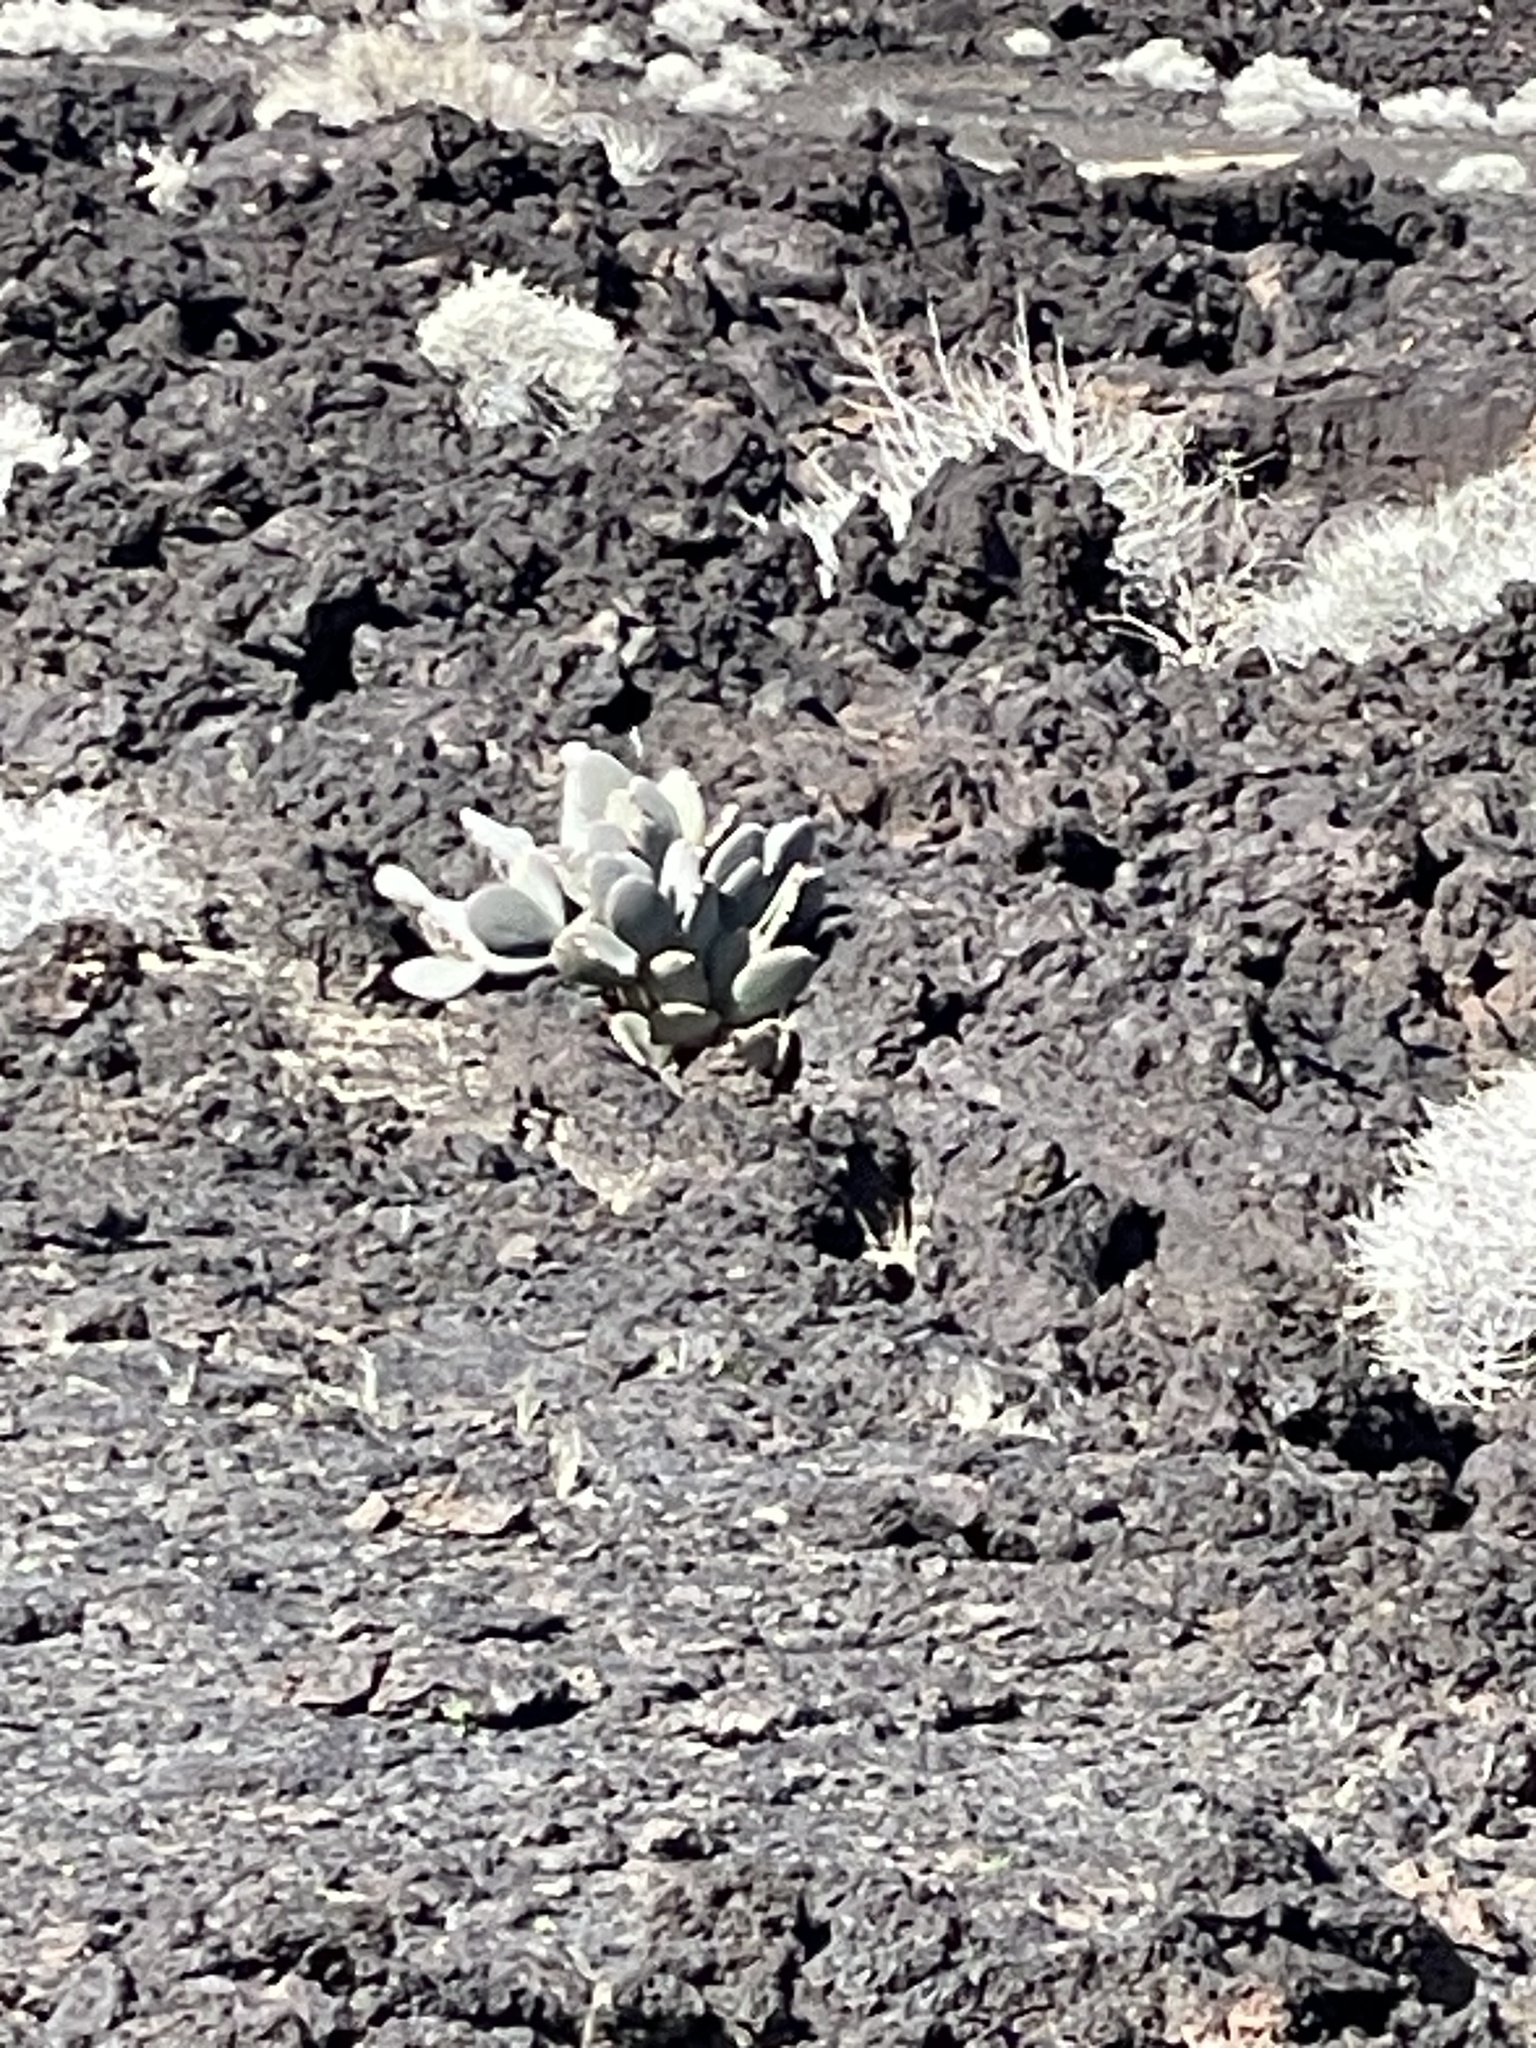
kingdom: Plantae
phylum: Tracheophyta
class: Magnoliopsida
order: Caryophyllales
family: Cactaceae
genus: Opuntia
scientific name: Opuntia basilaris
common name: Beavertail prickly-pear
